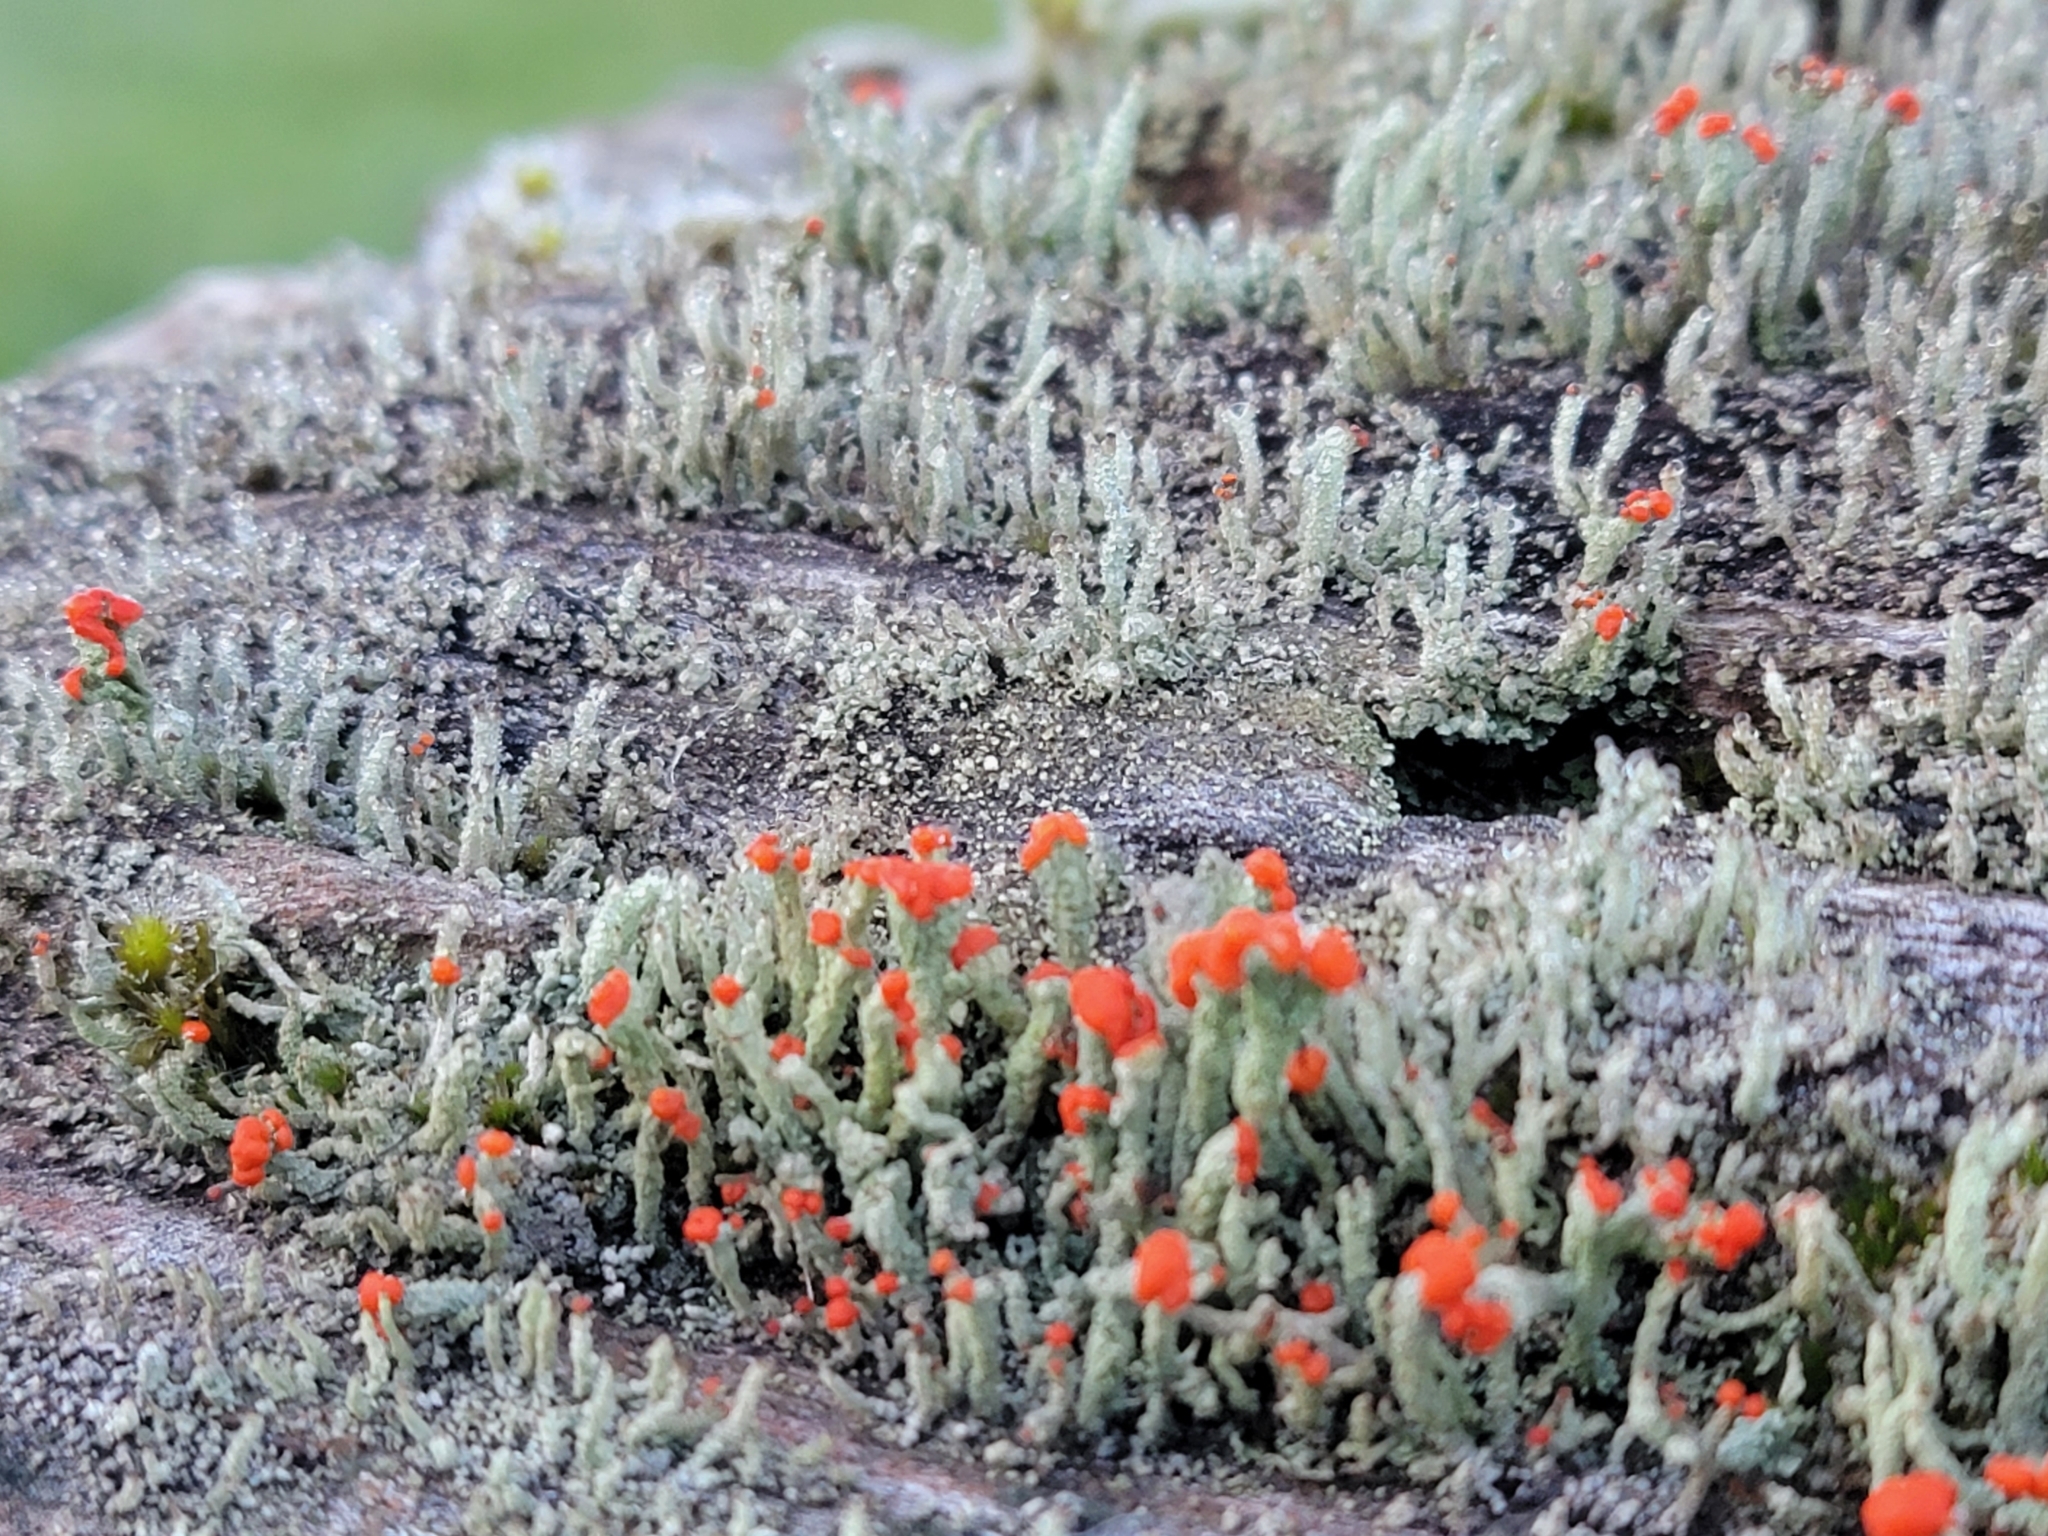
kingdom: Fungi
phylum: Ascomycota
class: Lecanoromycetes
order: Lecanorales
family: Cladoniaceae
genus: Cladonia
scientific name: Cladonia cristatella
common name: British soldier lichen
